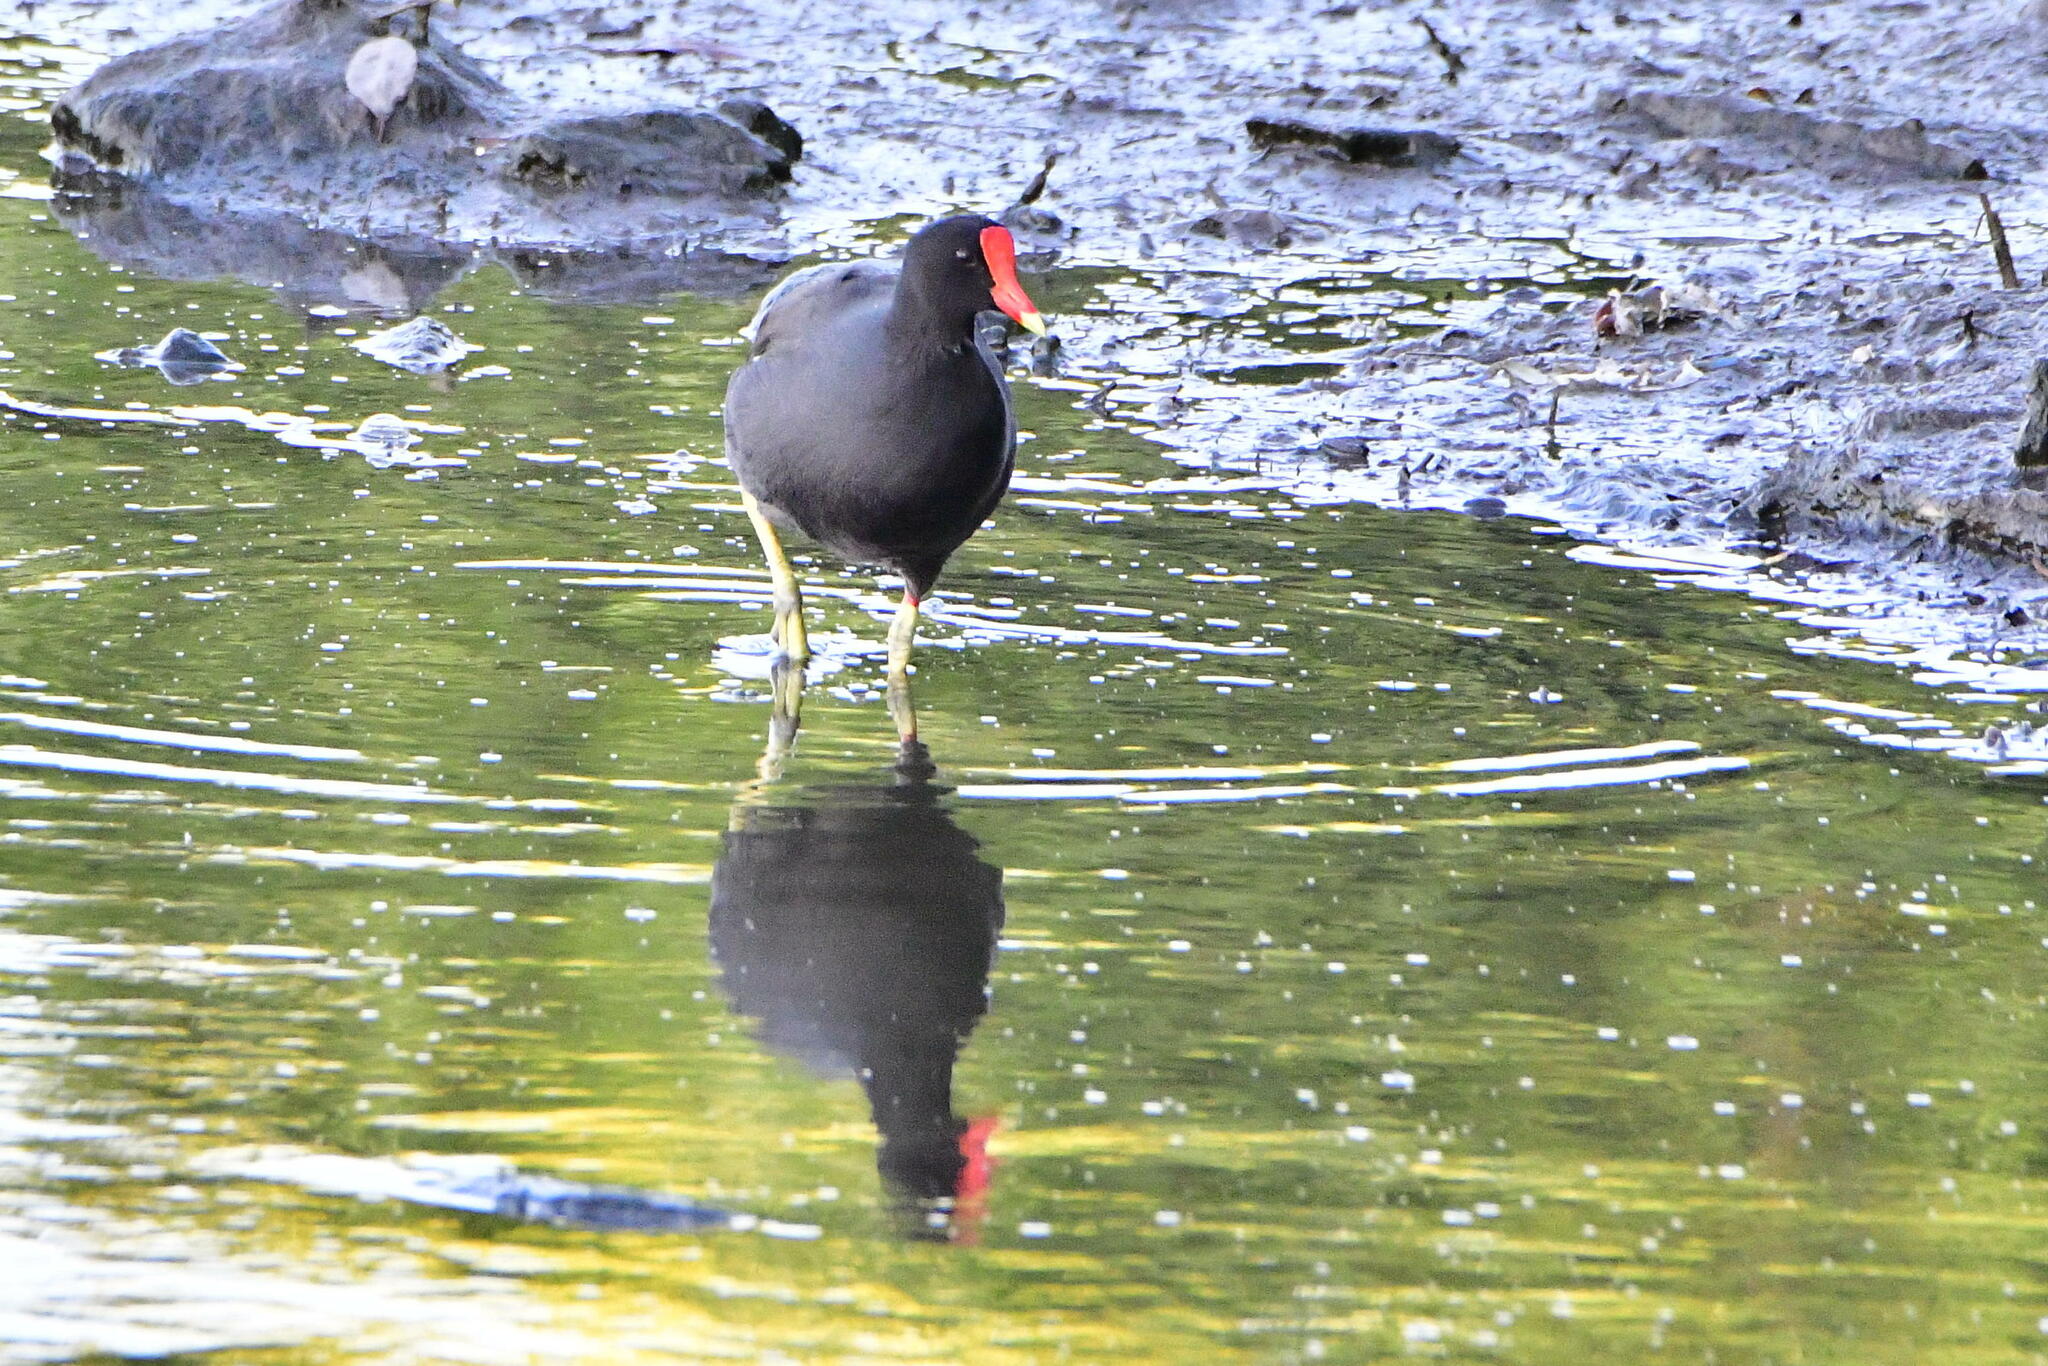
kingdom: Animalia
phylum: Chordata
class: Aves
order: Gruiformes
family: Rallidae
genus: Gallinula
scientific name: Gallinula chloropus
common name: Common moorhen
